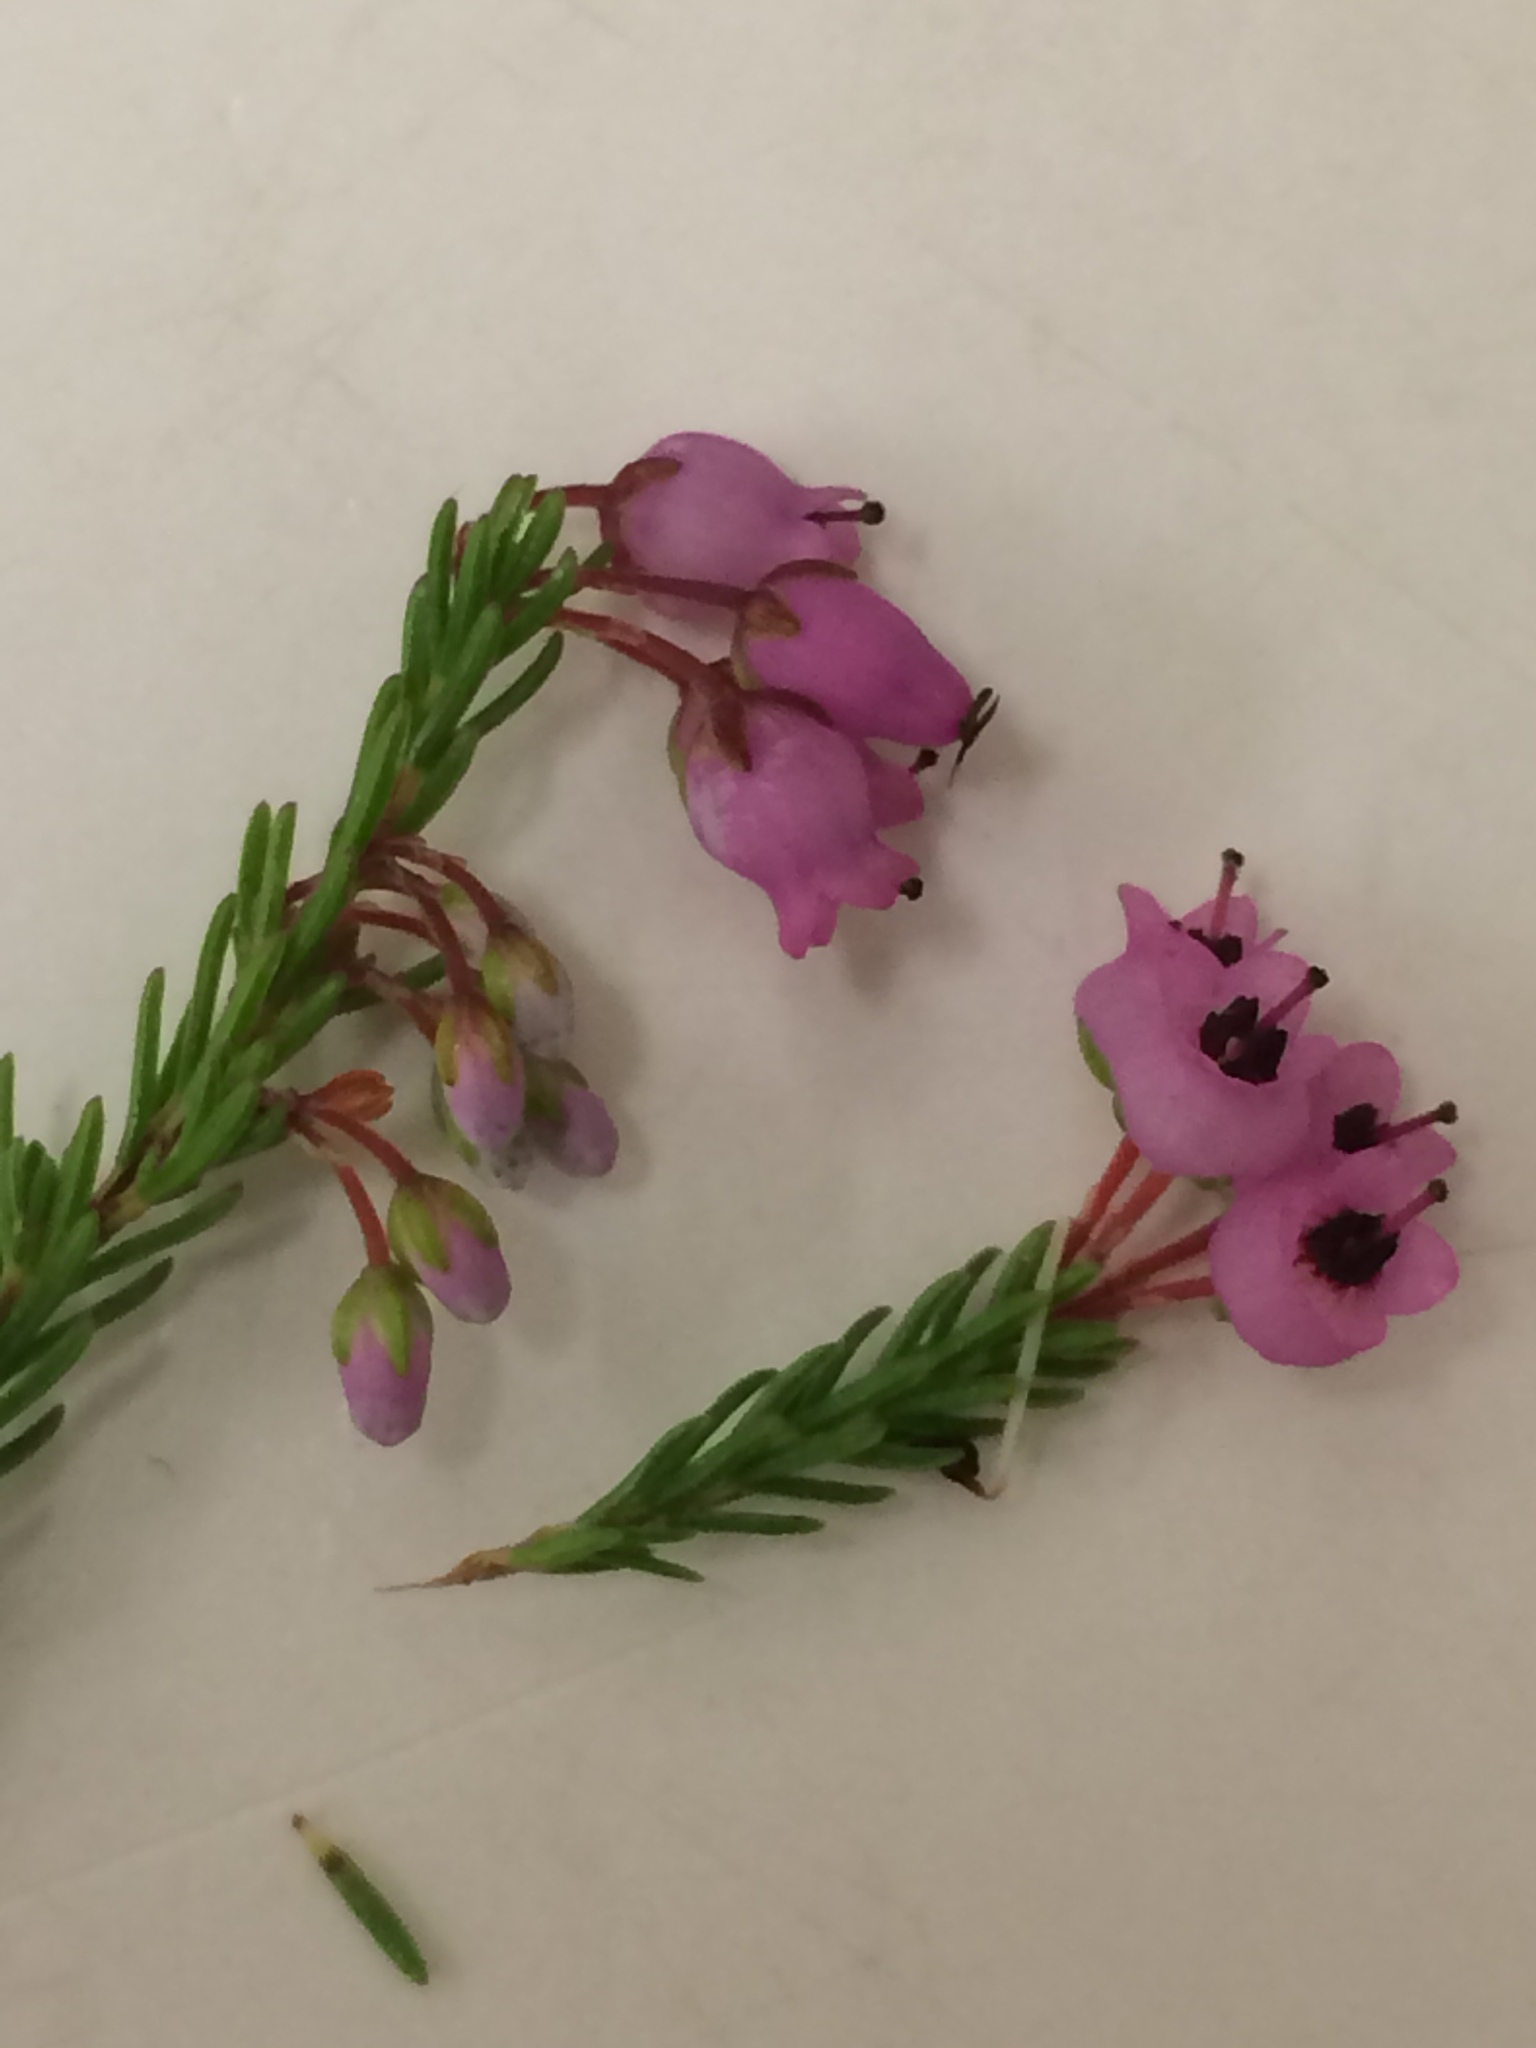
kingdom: Plantae
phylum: Tracheophyta
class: Magnoliopsida
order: Ericales
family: Ericaceae
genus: Erica
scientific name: Erica lateralis
